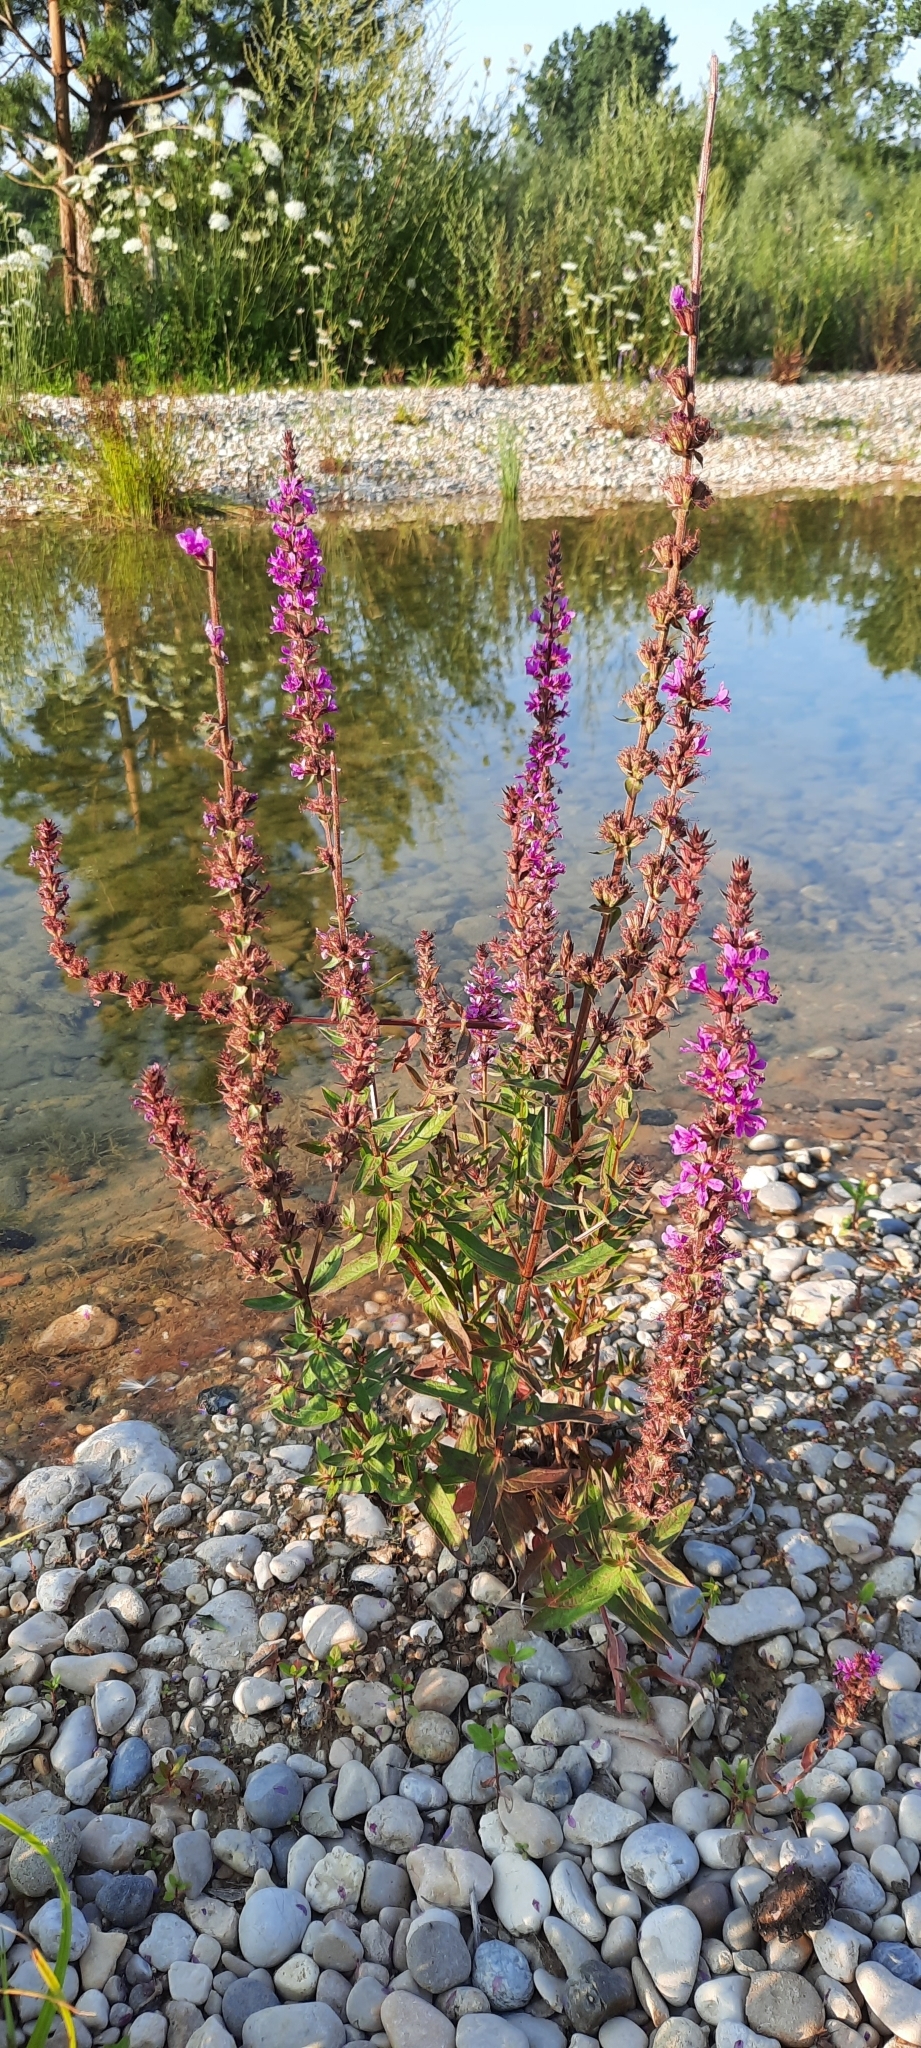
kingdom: Plantae
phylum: Tracheophyta
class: Magnoliopsida
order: Myrtales
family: Lythraceae
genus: Lythrum
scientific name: Lythrum salicaria
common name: Purple loosestrife
